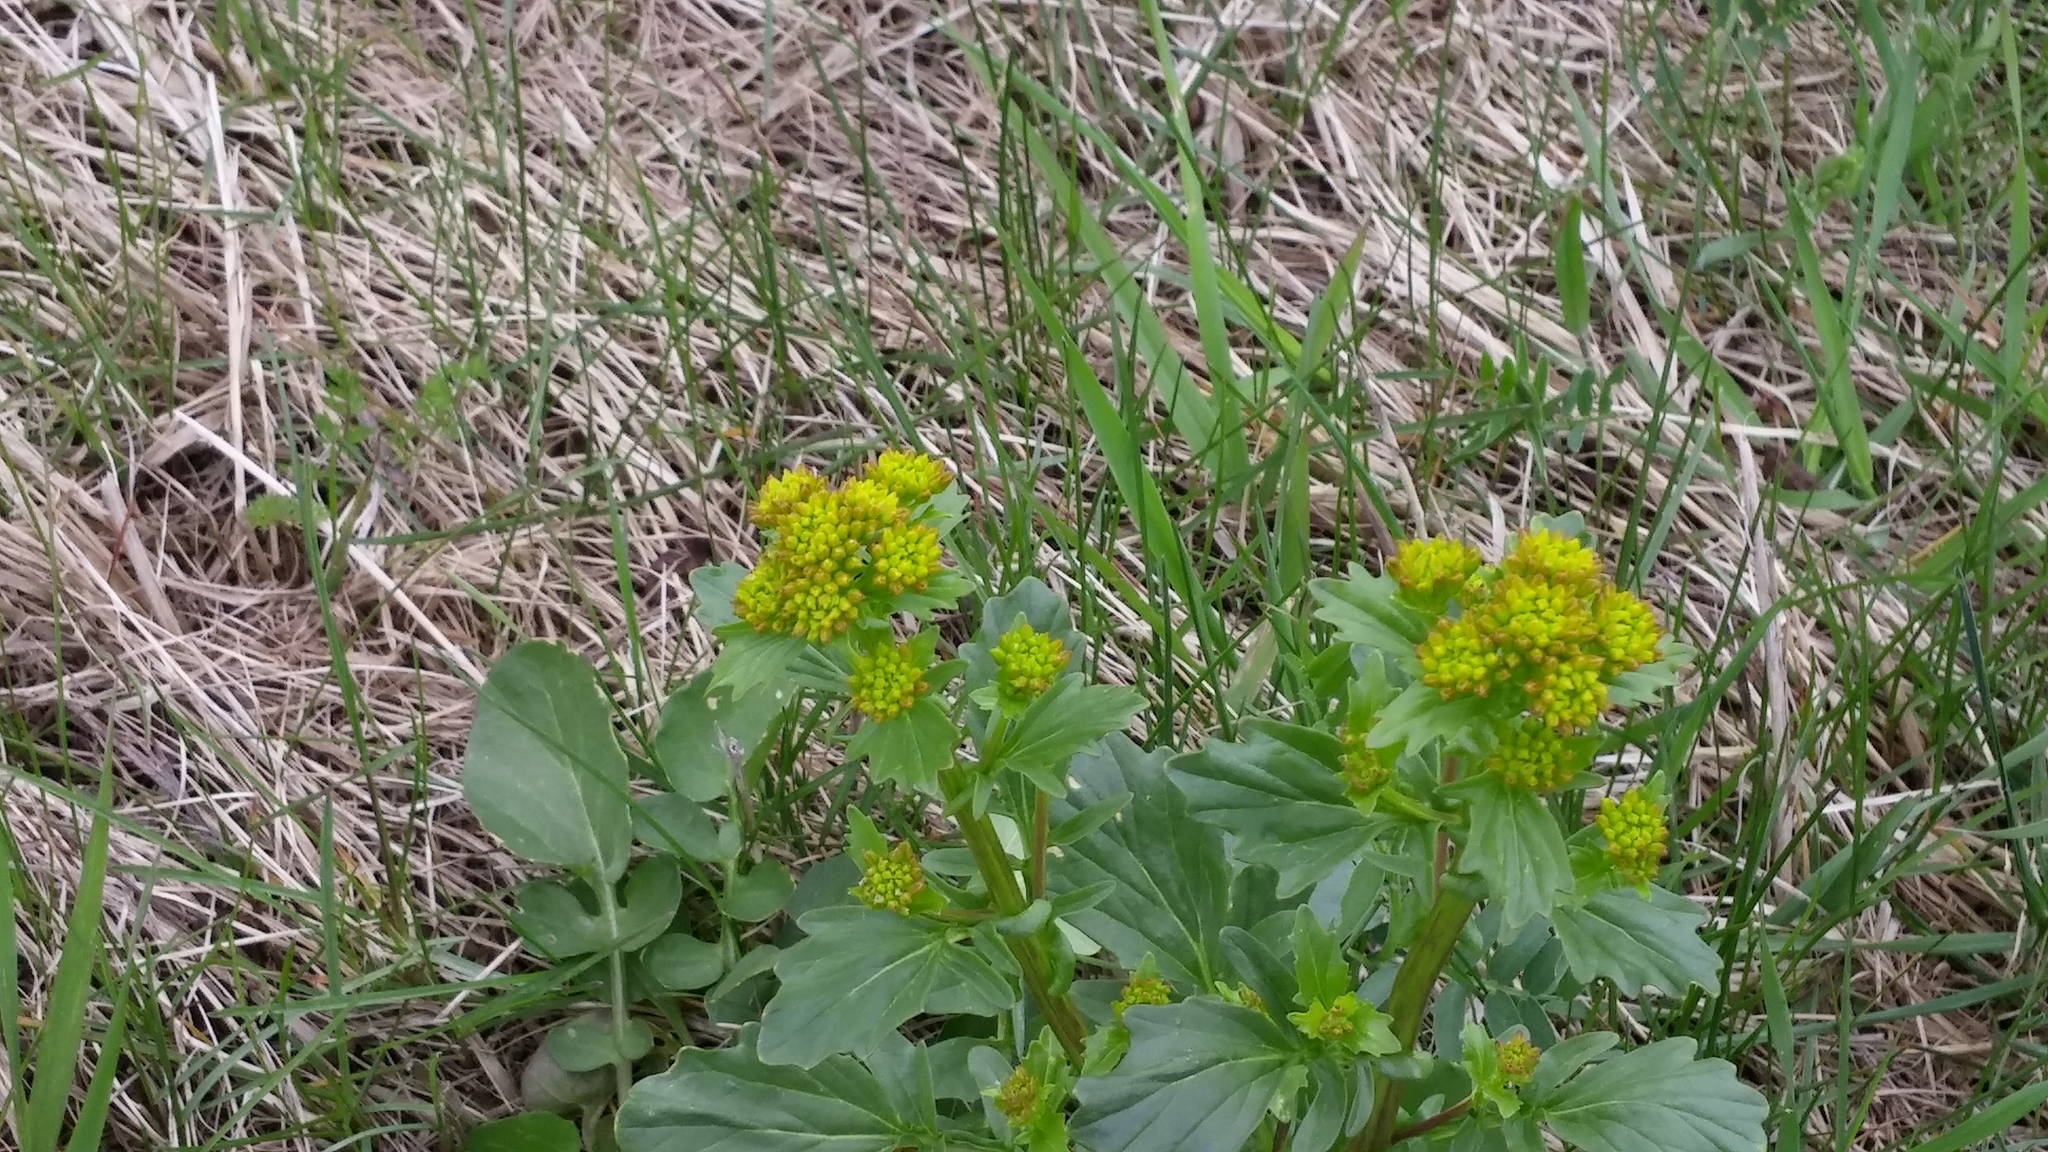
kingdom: Plantae
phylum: Tracheophyta
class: Magnoliopsida
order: Brassicales
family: Brassicaceae
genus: Barbarea
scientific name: Barbarea vulgaris
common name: Cressy-greens
